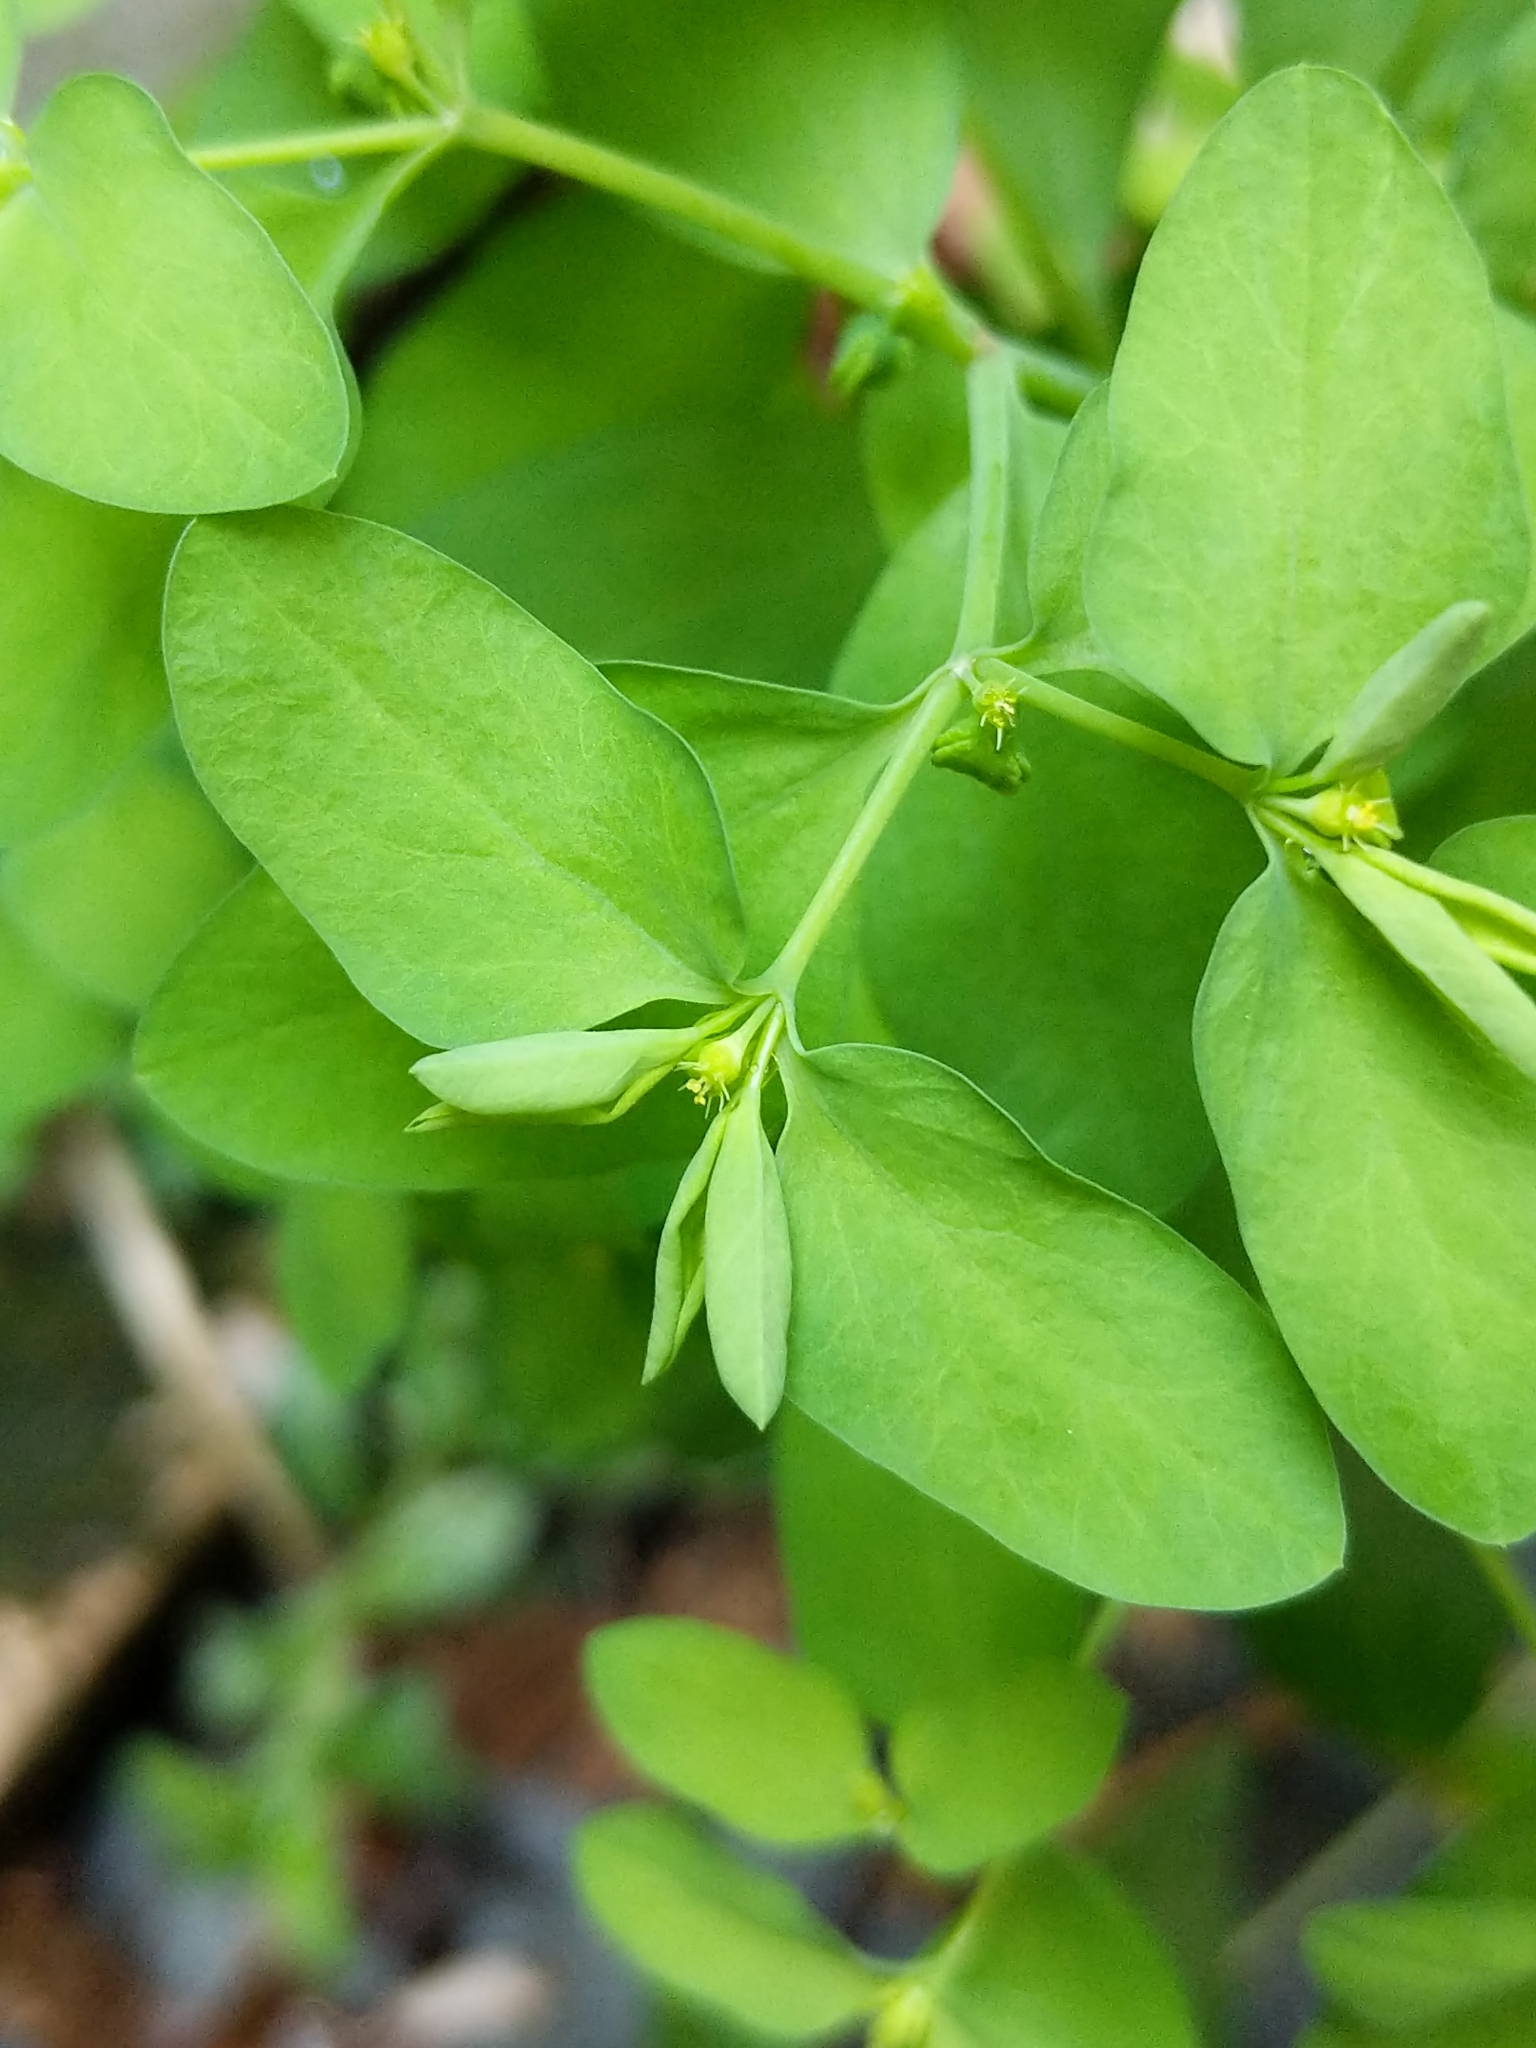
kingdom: Plantae
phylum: Tracheophyta
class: Magnoliopsida
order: Malpighiales
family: Euphorbiaceae
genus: Euphorbia
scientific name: Euphorbia peplus
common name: Petty spurge
